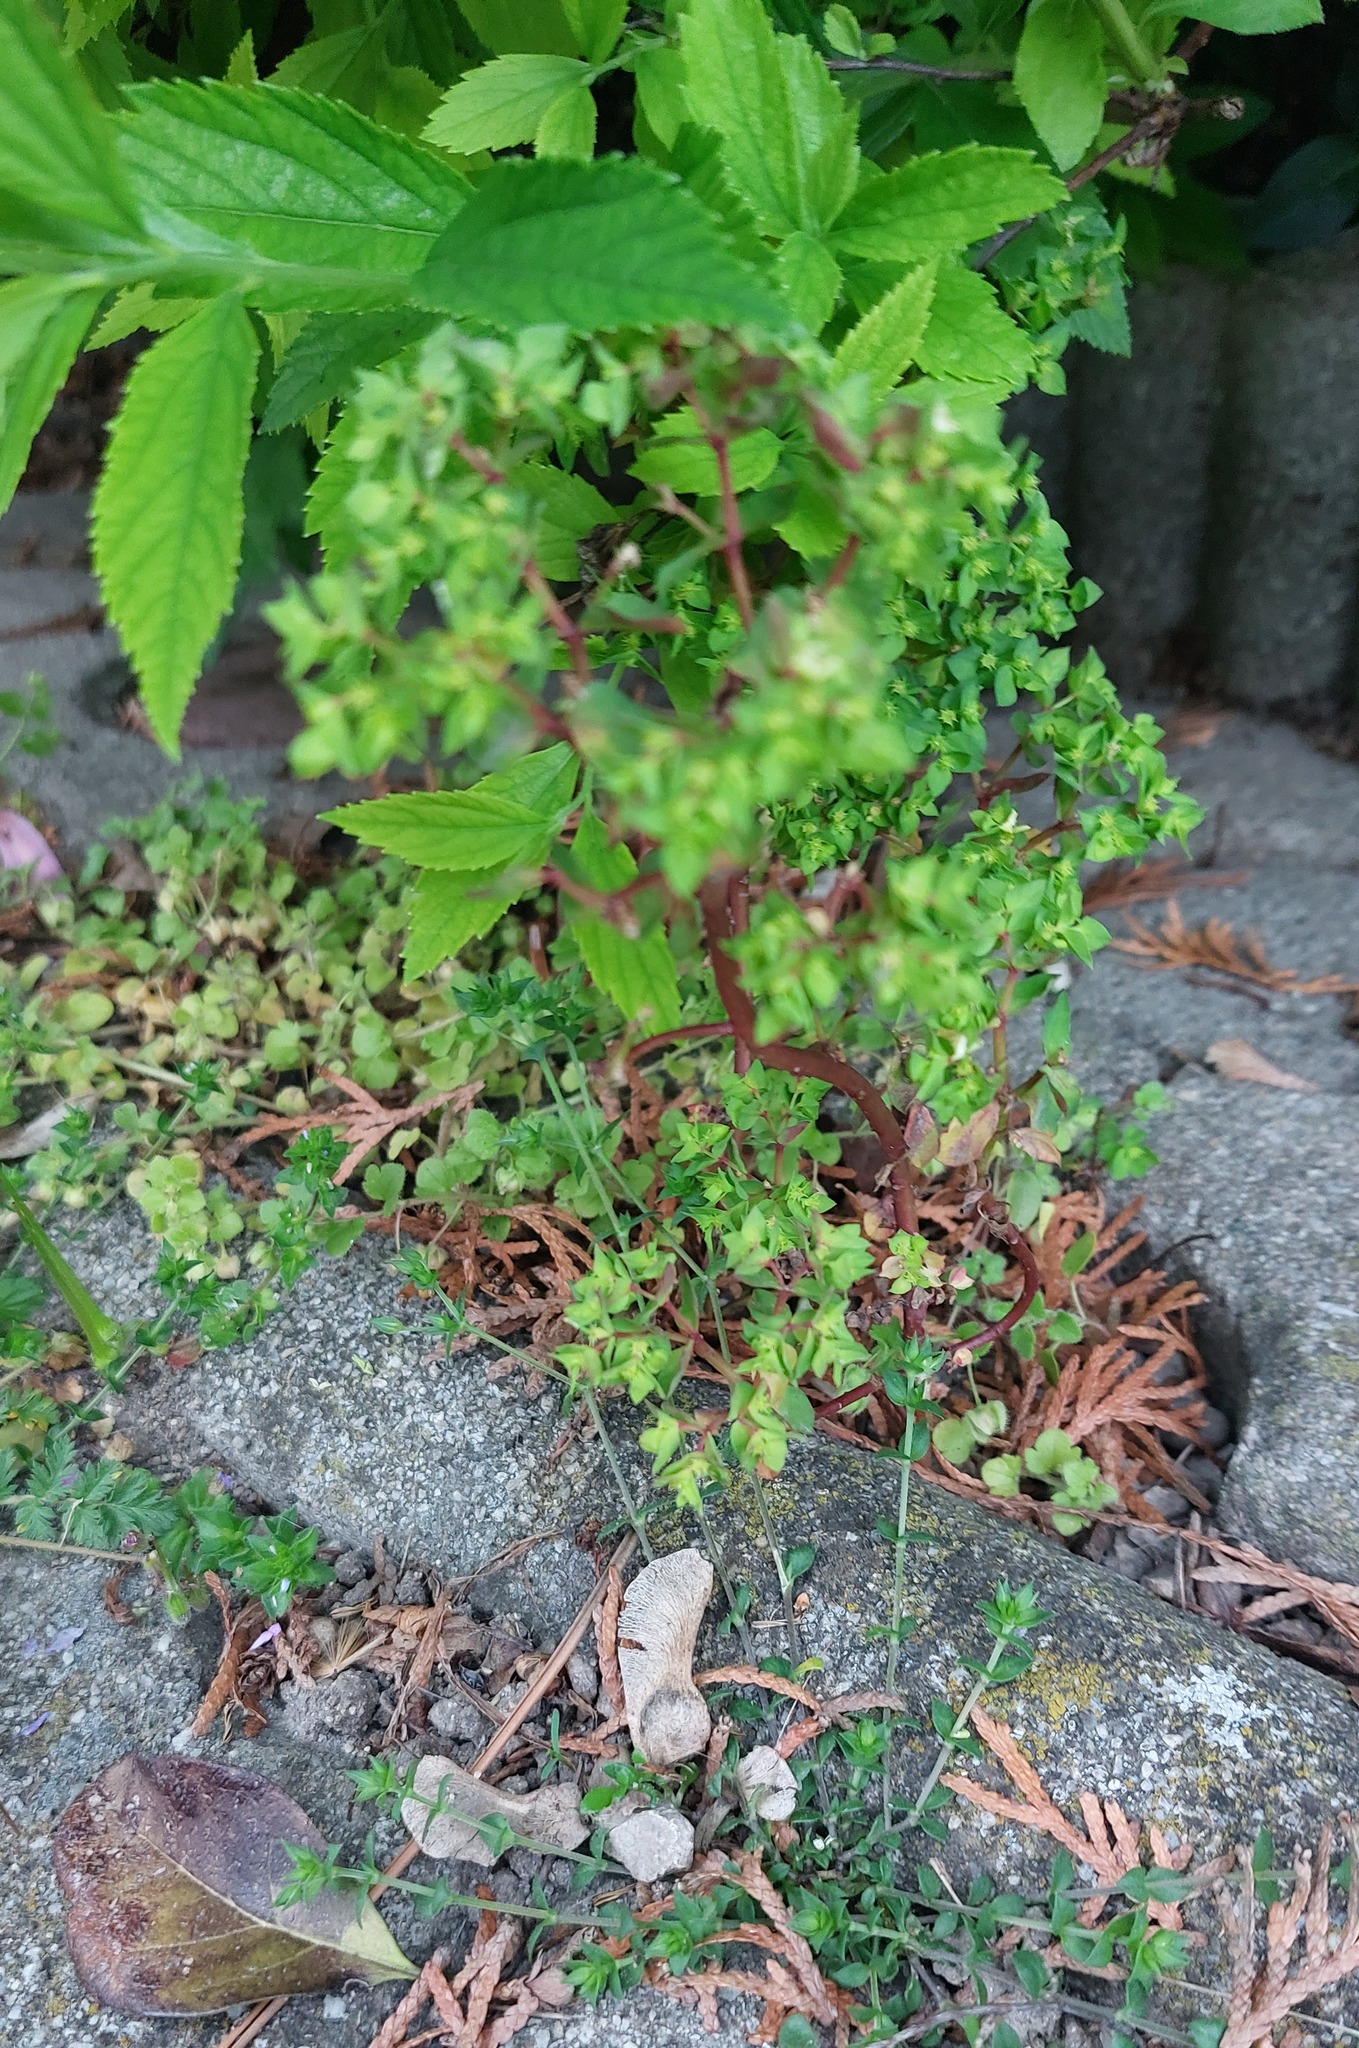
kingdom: Plantae
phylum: Tracheophyta
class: Magnoliopsida
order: Malpighiales
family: Euphorbiaceae
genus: Euphorbia
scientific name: Euphorbia peplus
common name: Petty spurge
